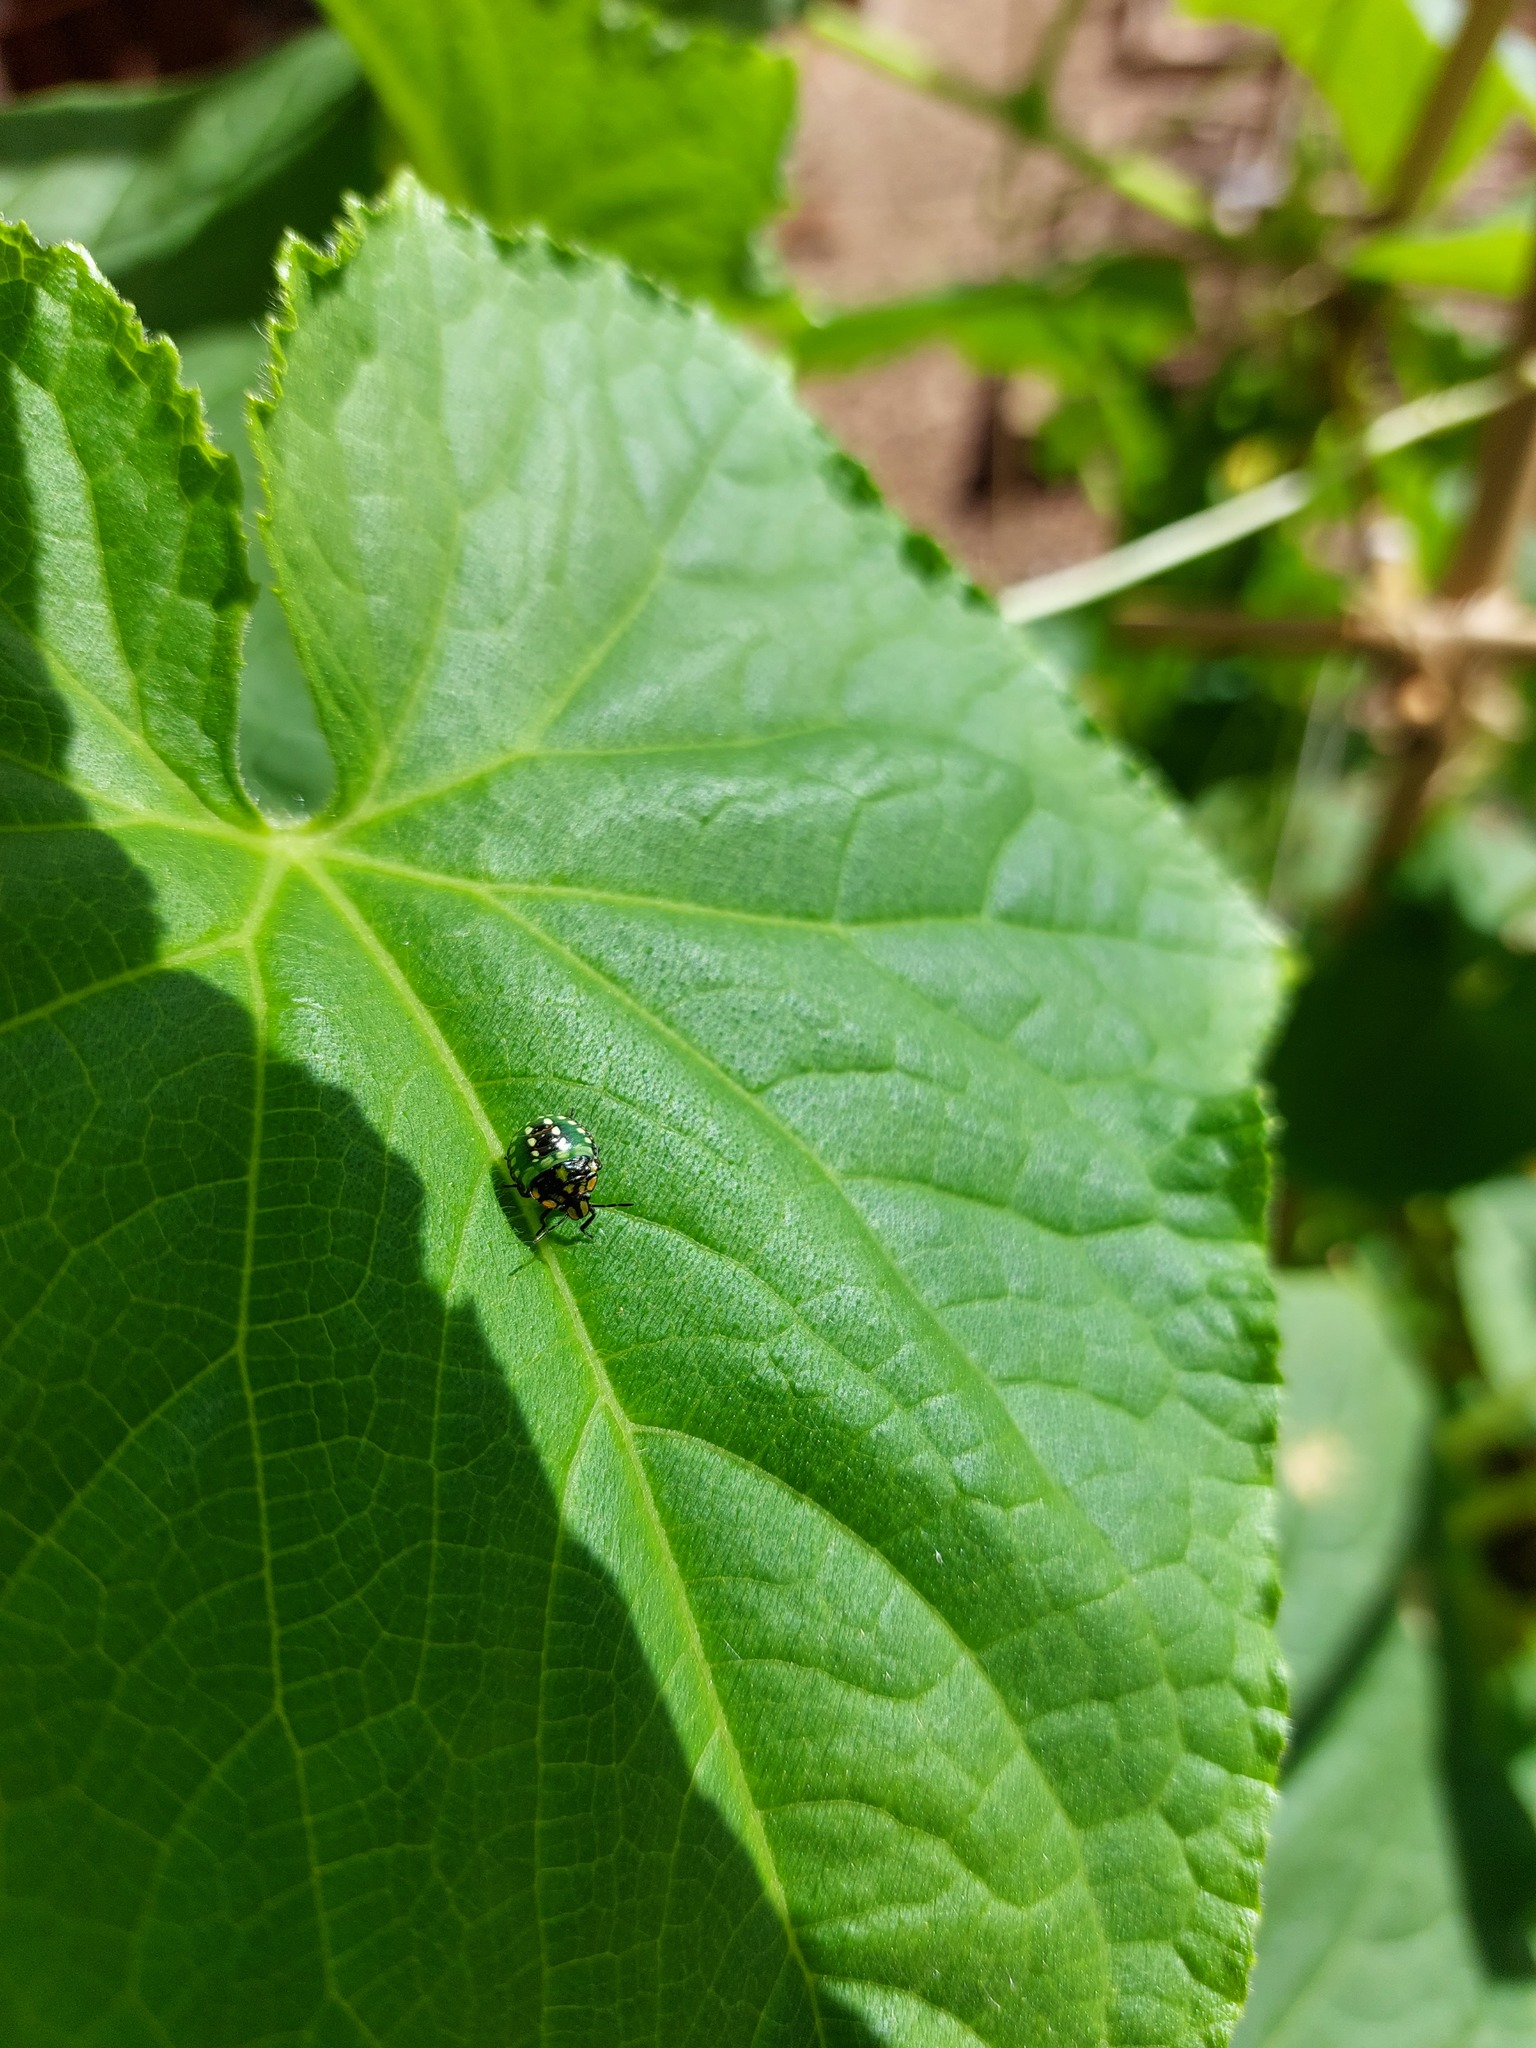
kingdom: Animalia
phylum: Arthropoda
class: Insecta
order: Hemiptera
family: Pentatomidae
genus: Nezara
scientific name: Nezara viridula
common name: Southern green stink bug
